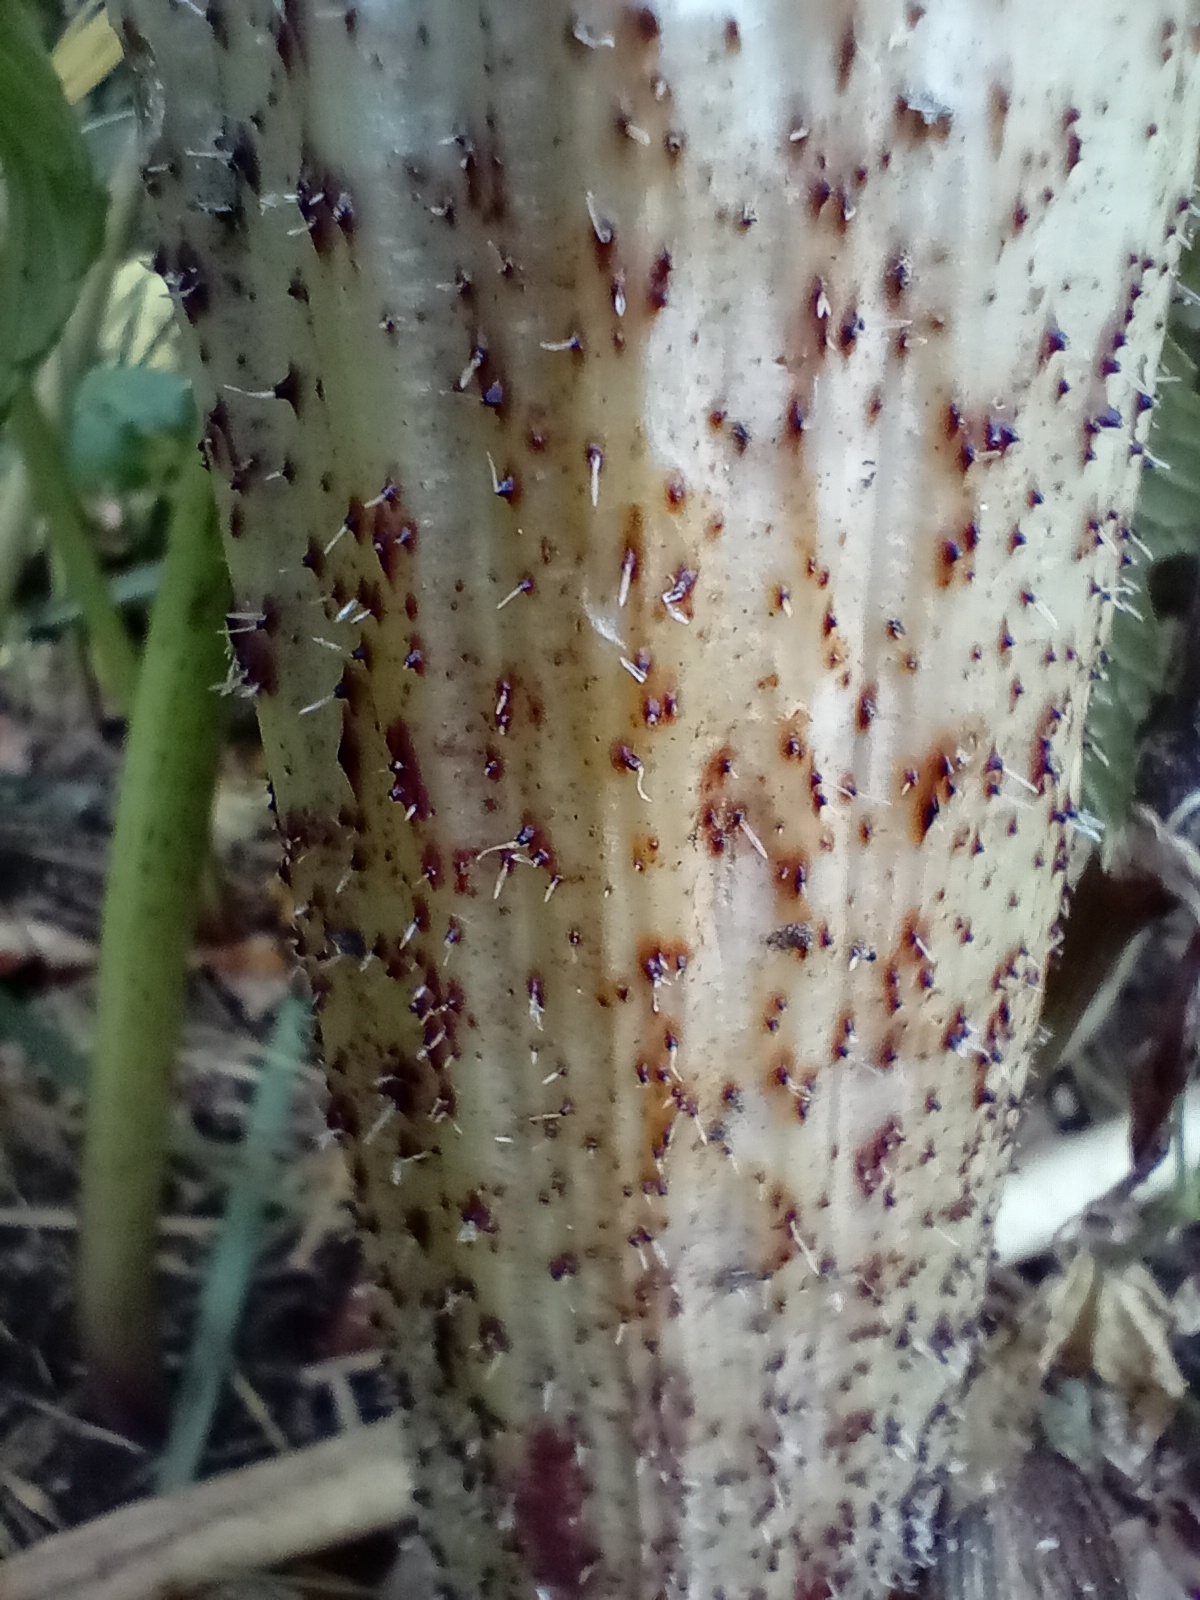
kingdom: Plantae
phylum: Tracheophyta
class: Magnoliopsida
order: Apiales
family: Apiaceae
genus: Heracleum
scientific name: Heracleum mantegazzianum
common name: Giant hogweed
